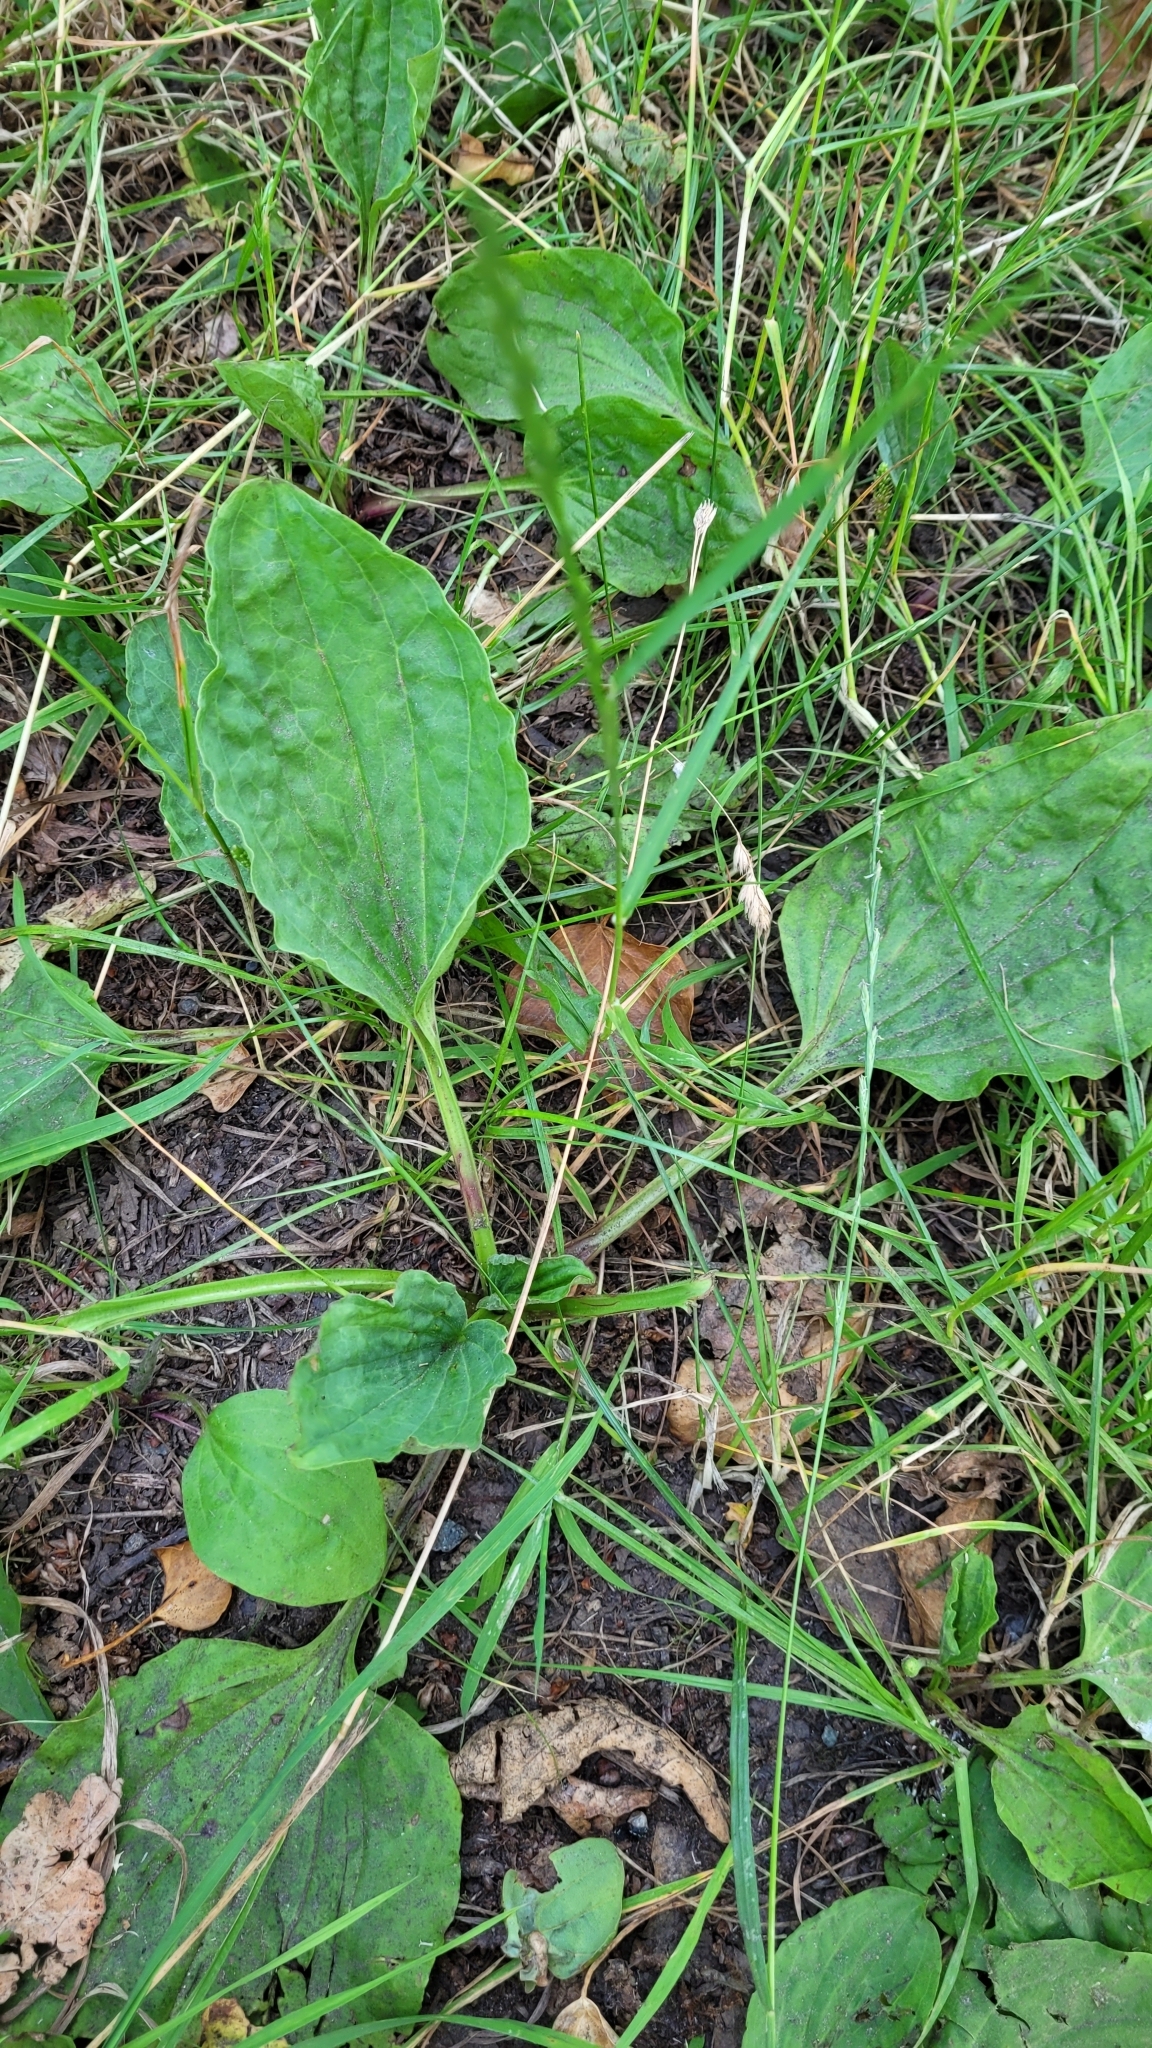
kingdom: Plantae
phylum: Tracheophyta
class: Magnoliopsida
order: Lamiales
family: Plantaginaceae
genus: Plantago
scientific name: Plantago major
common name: Common plantain
